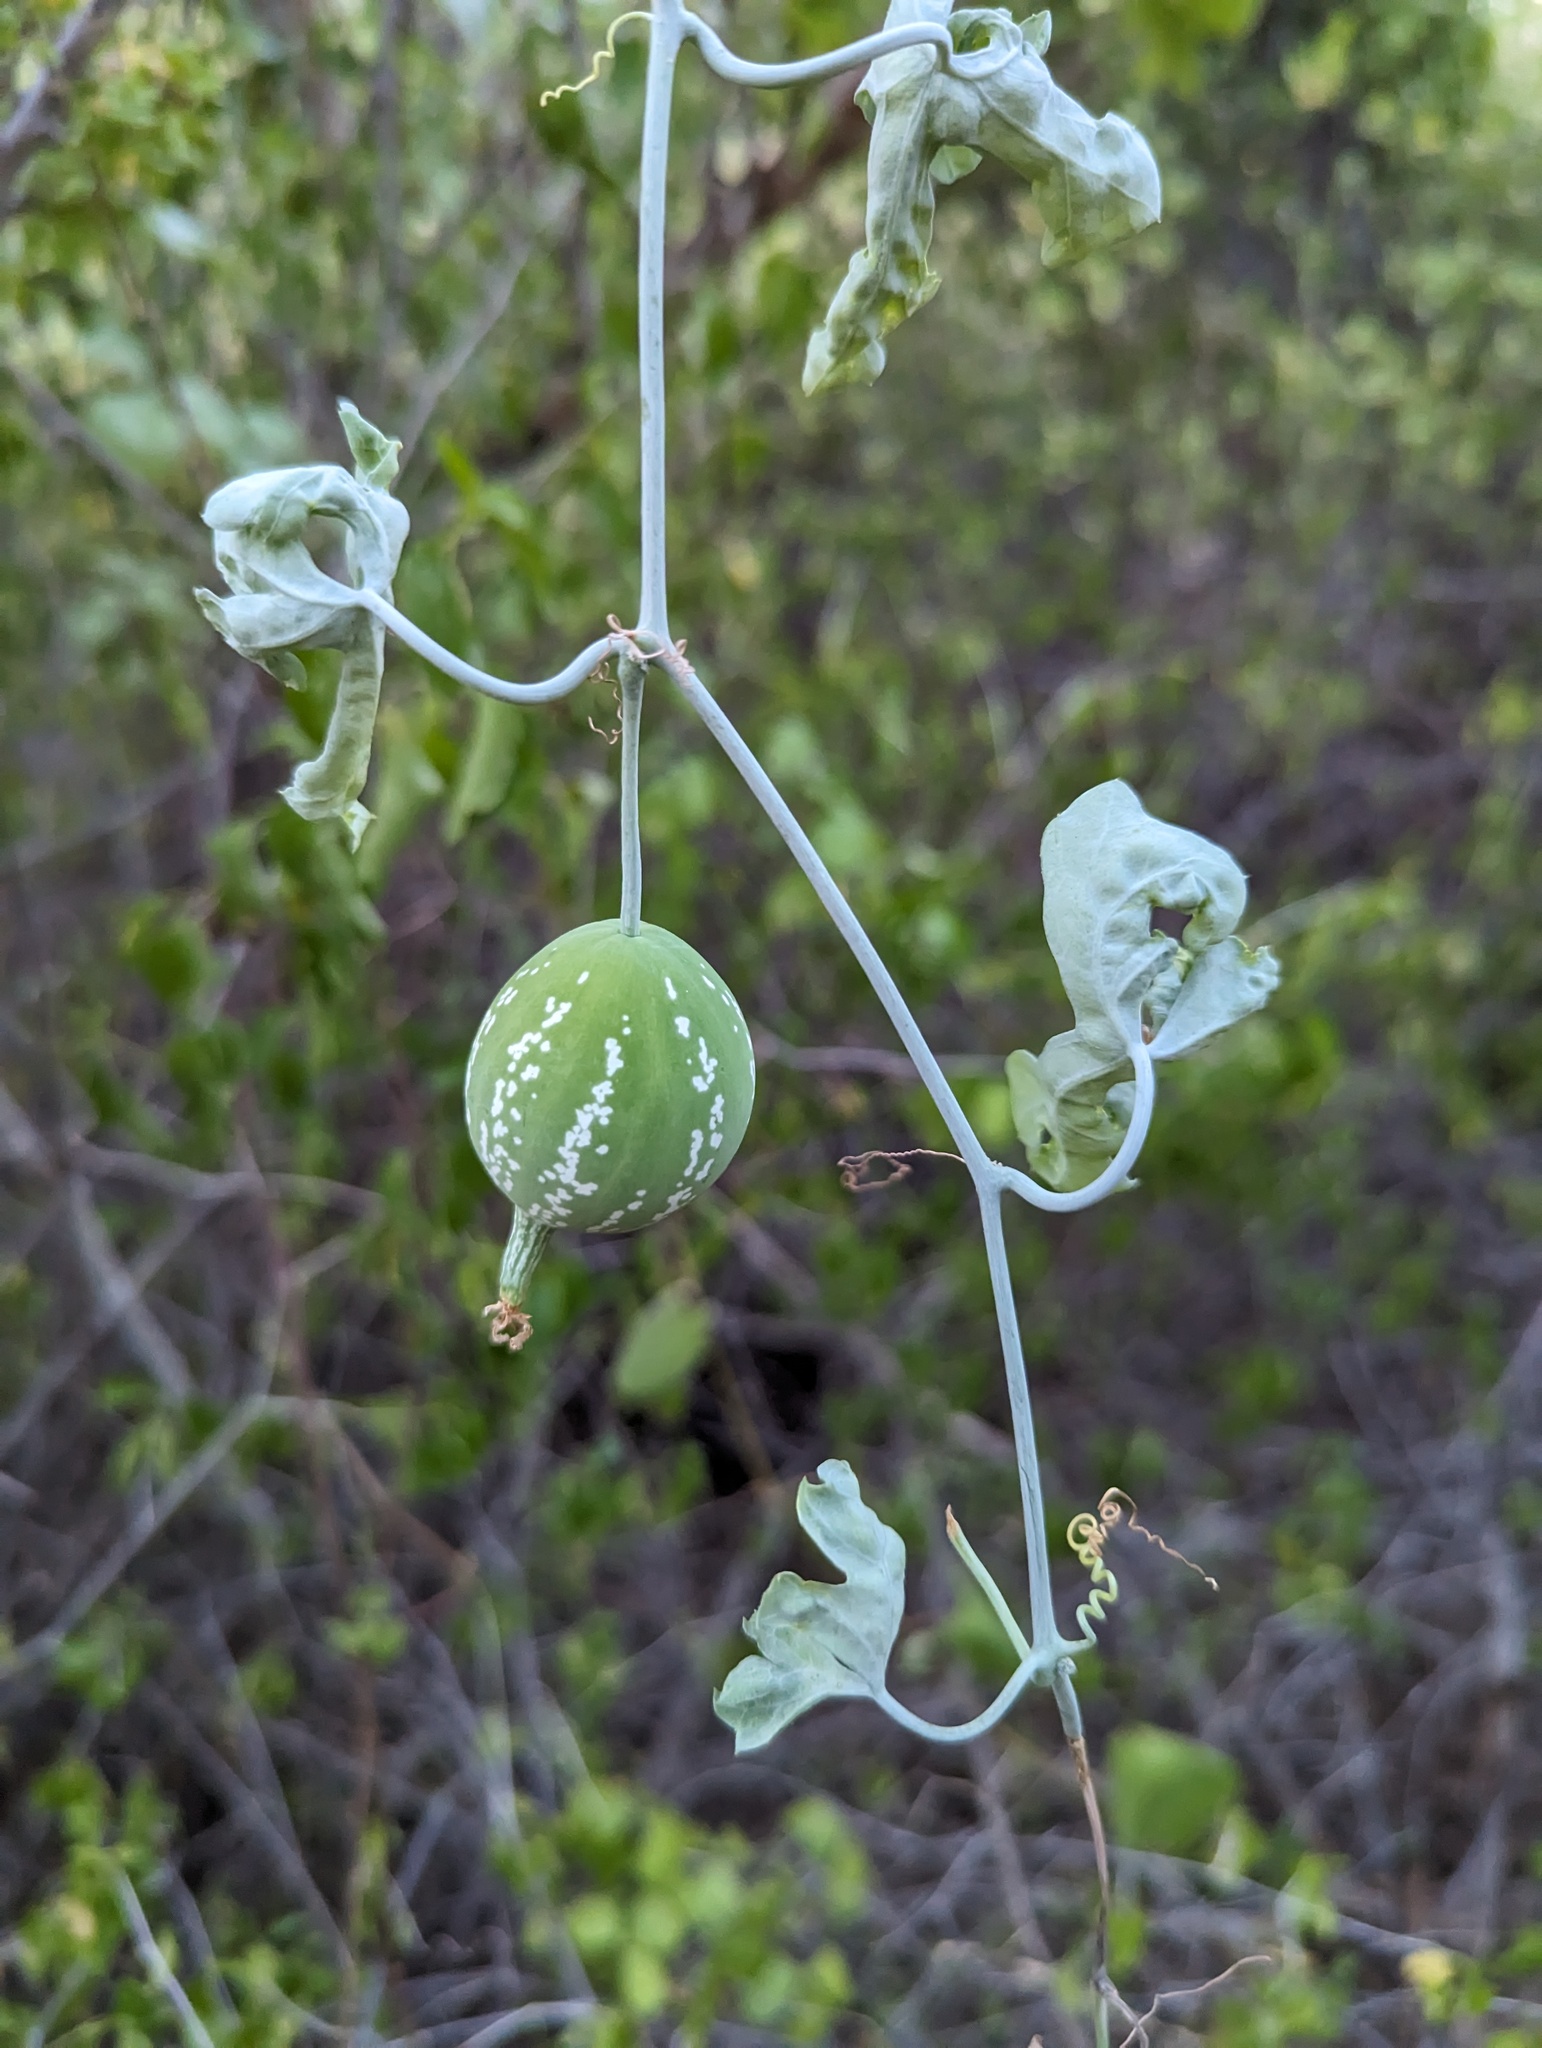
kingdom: Plantae
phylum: Tracheophyta
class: Magnoliopsida
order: Cucurbitales
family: Cucurbitaceae
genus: Ibervillea
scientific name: Ibervillea sonorae
